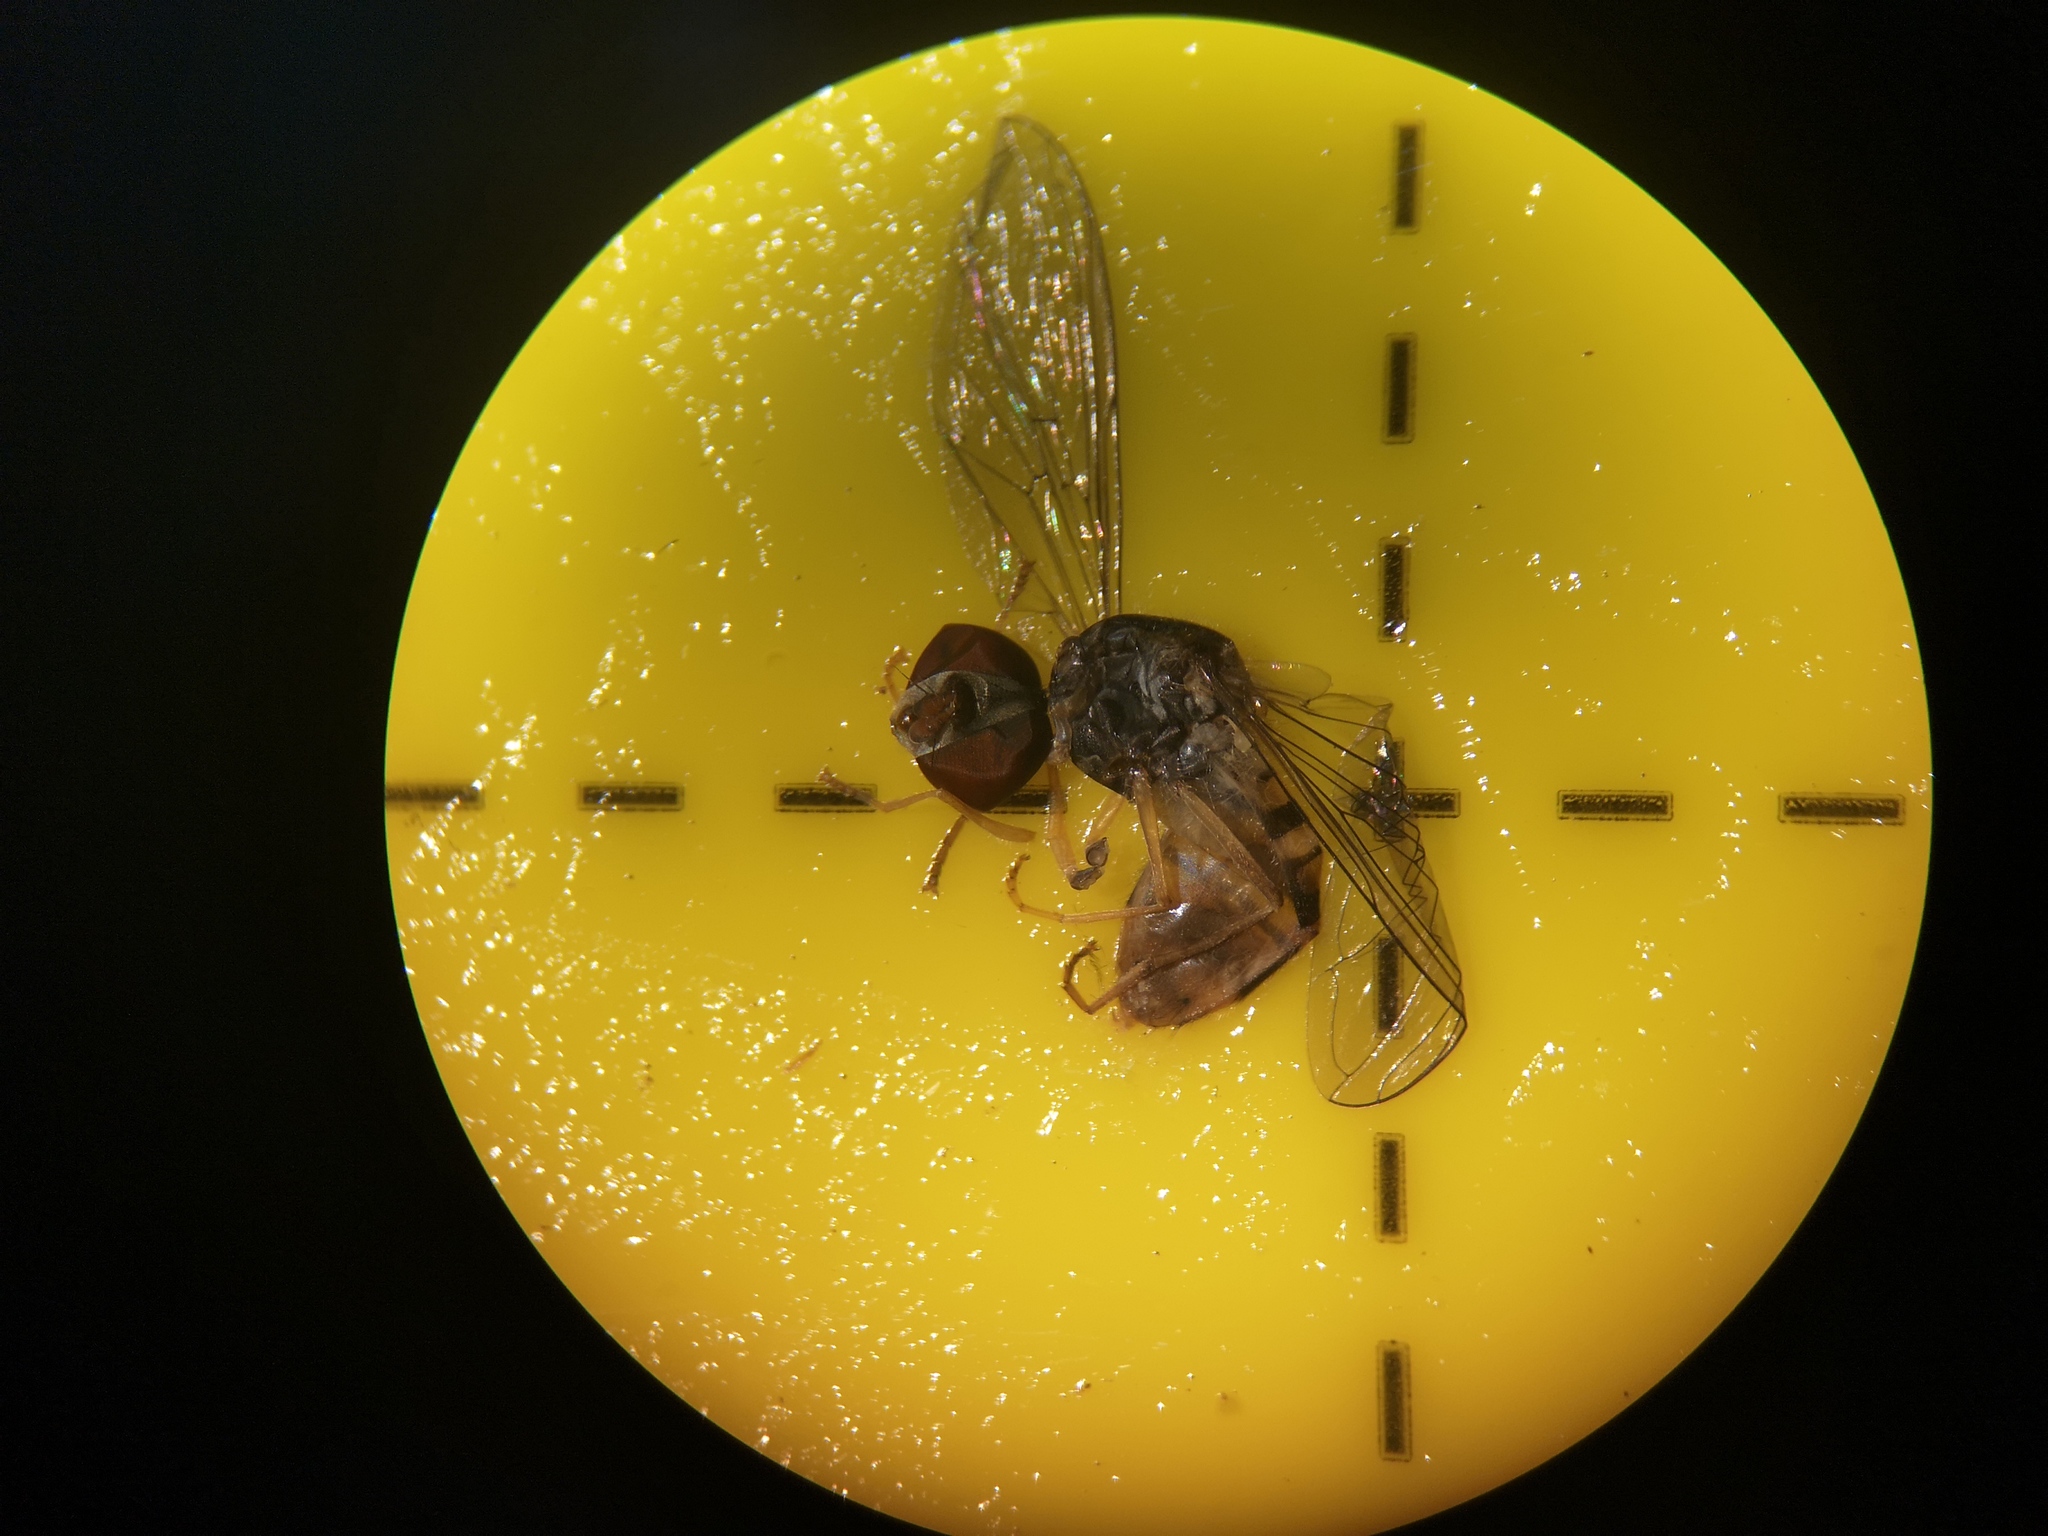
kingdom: Animalia
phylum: Arthropoda
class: Insecta
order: Diptera
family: Syrphidae
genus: Episyrphus
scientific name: Episyrphus balteatus
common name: Marmalade hoverfly
